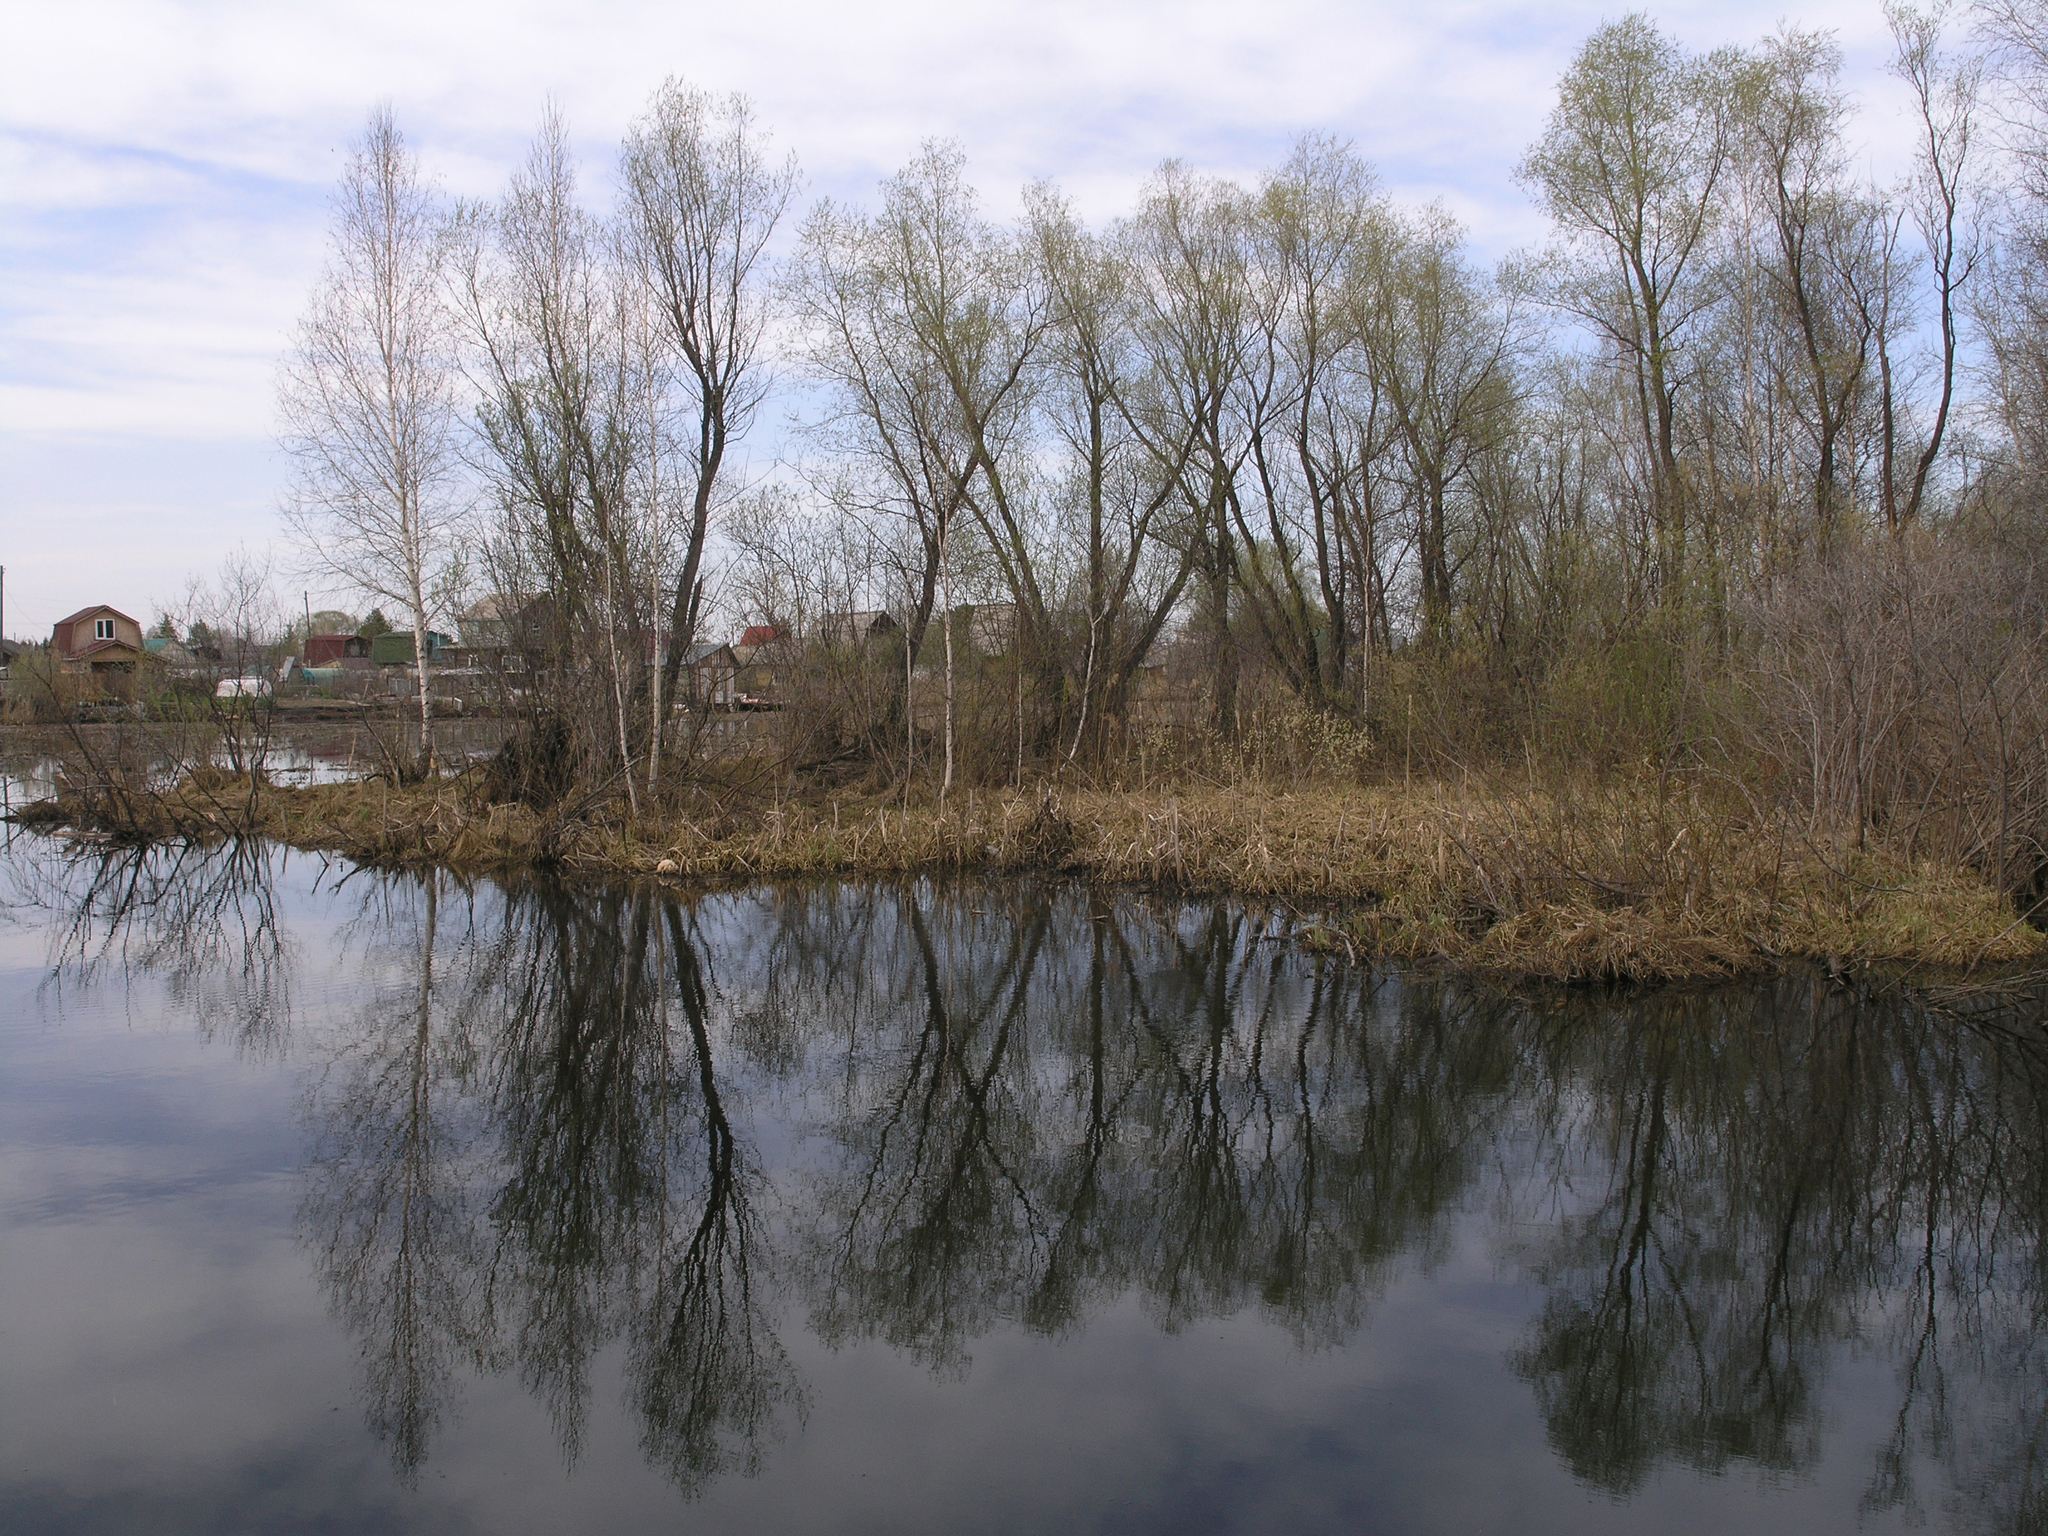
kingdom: Plantae
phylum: Tracheophyta
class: Magnoliopsida
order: Malpighiales
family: Salicaceae
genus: Salix
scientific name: Salix alba
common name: White willow
